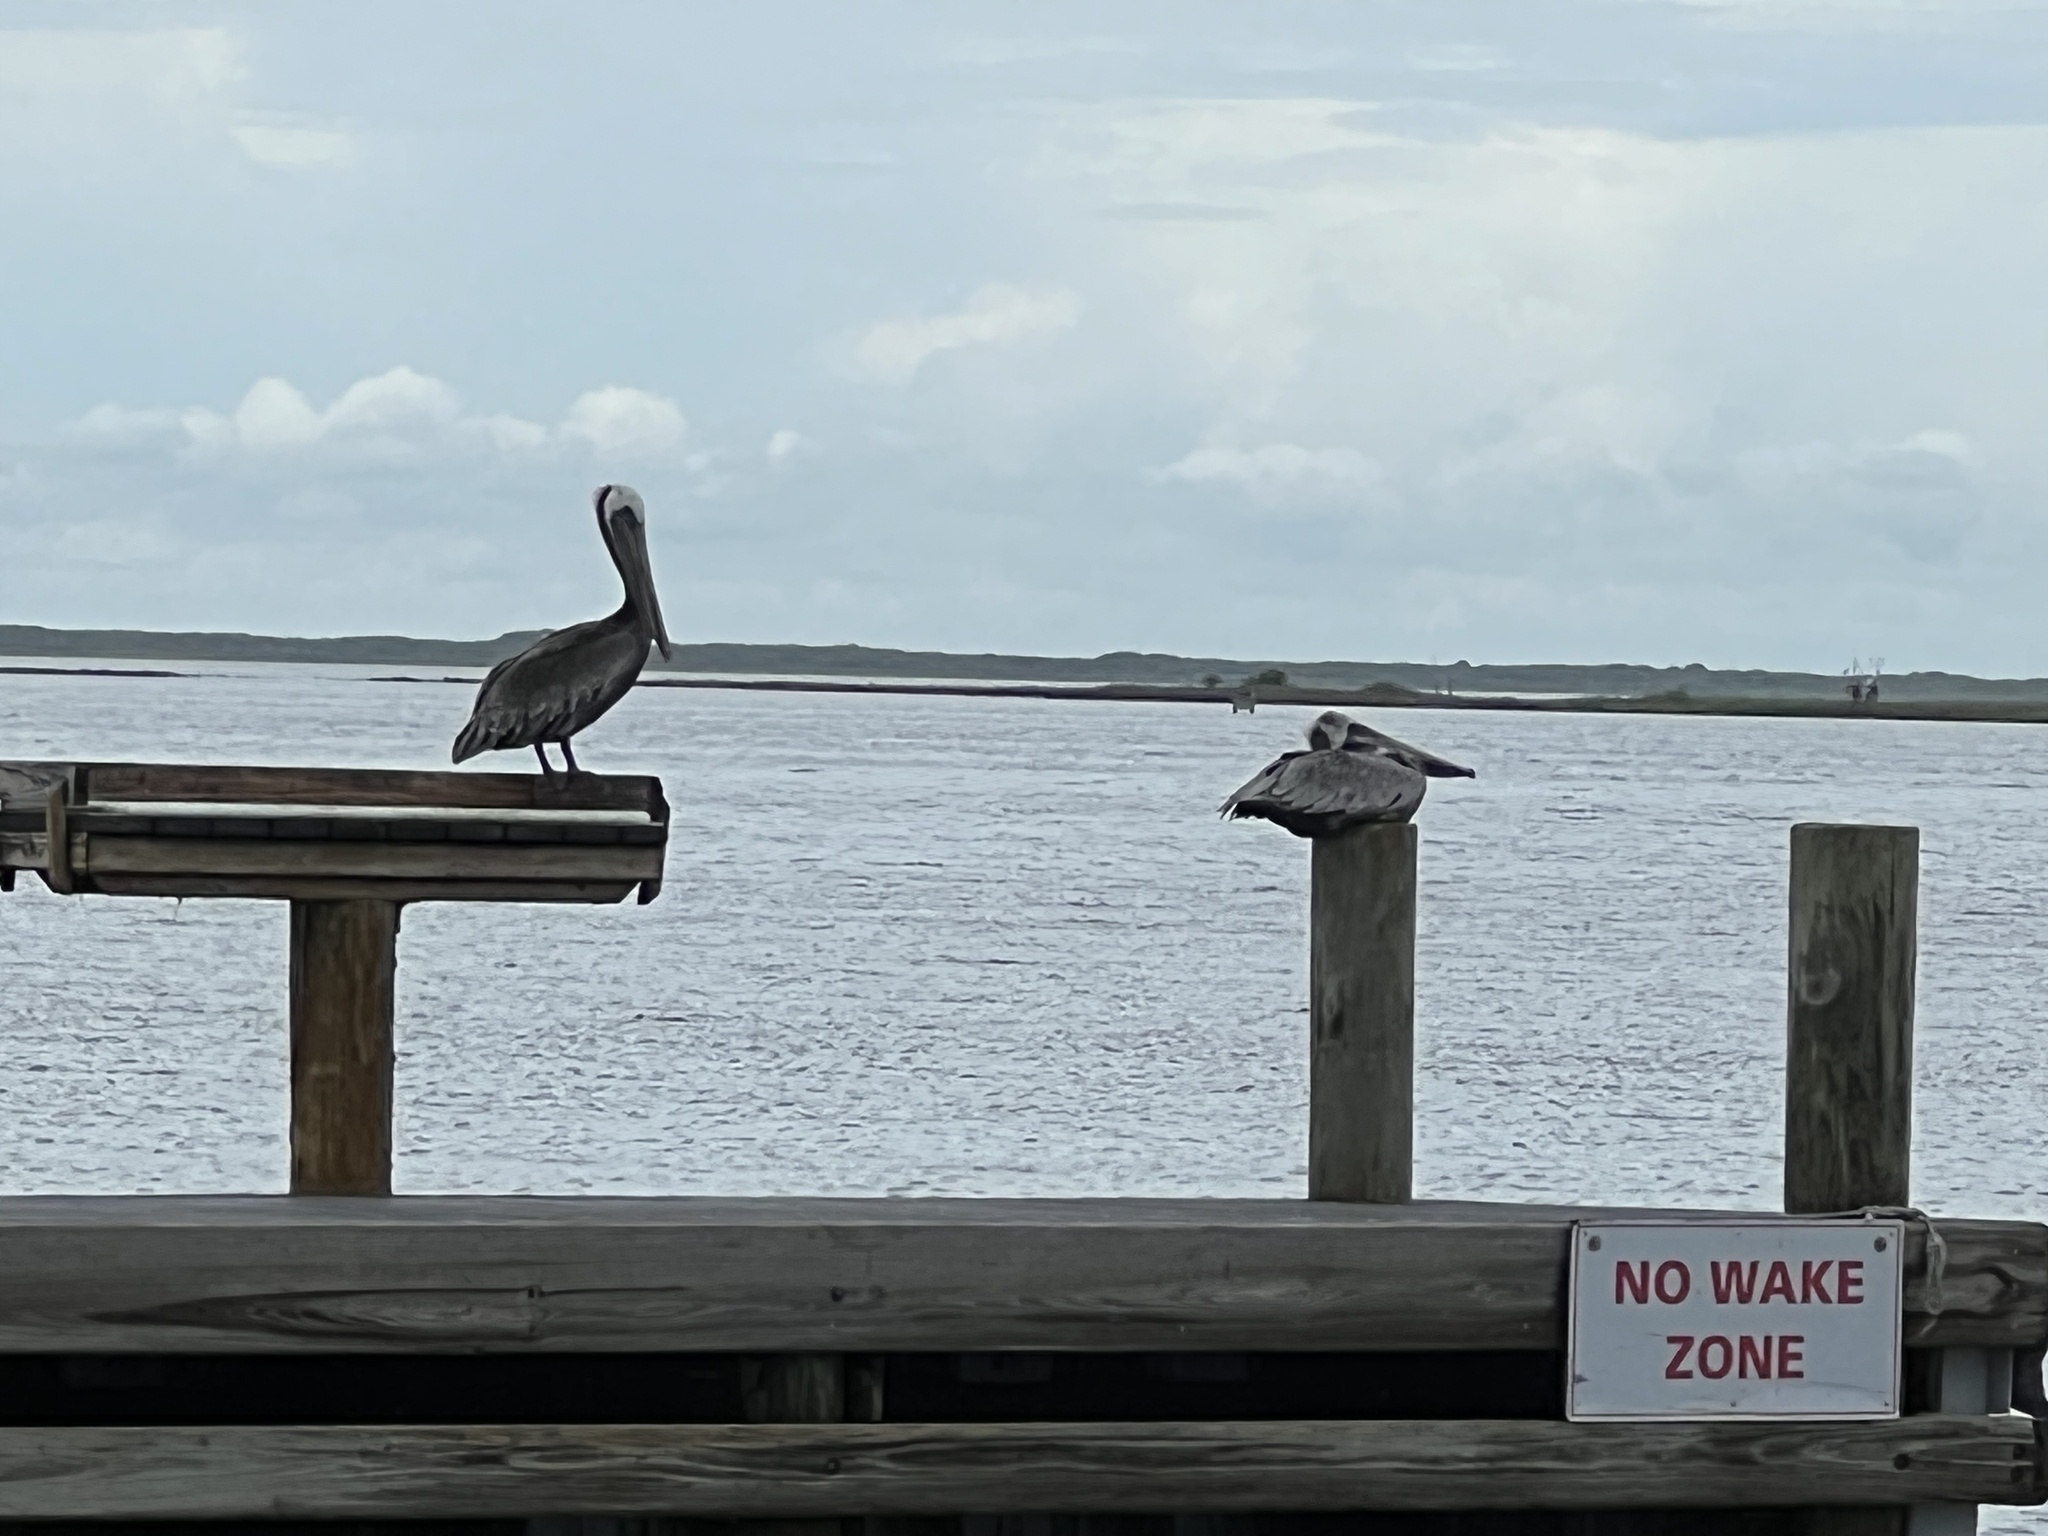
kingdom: Animalia
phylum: Chordata
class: Aves
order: Pelecaniformes
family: Pelecanidae
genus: Pelecanus
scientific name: Pelecanus occidentalis
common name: Brown pelican
